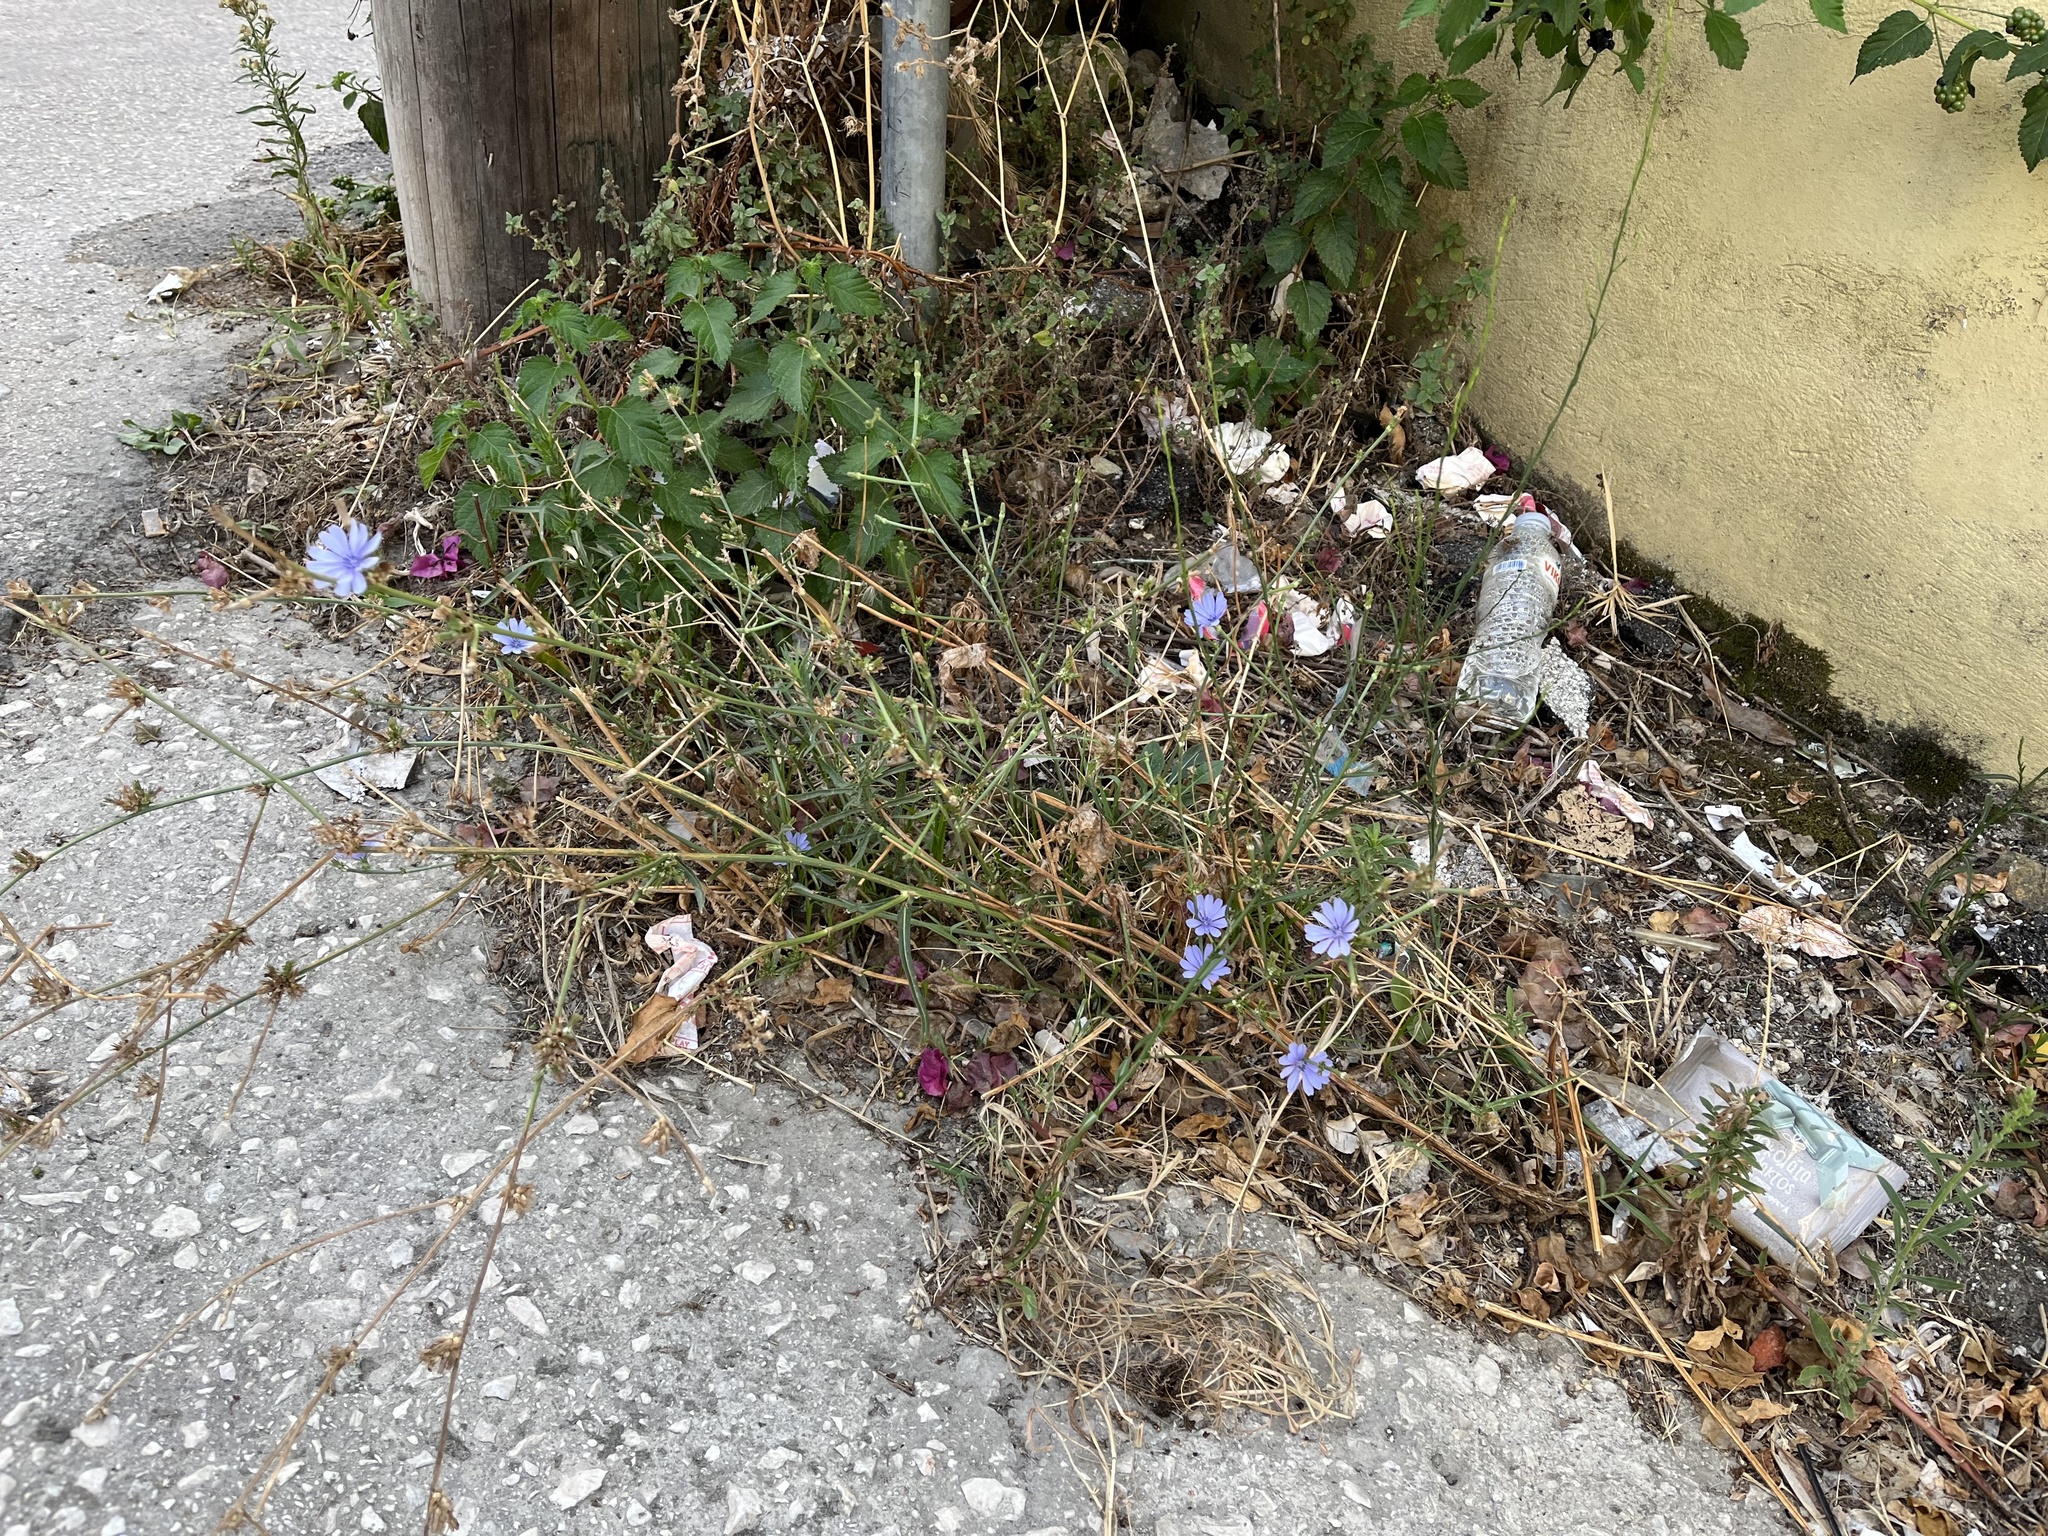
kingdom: Plantae
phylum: Tracheophyta
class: Magnoliopsida
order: Asterales
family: Asteraceae
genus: Cichorium
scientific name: Cichorium intybus
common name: Chicory
